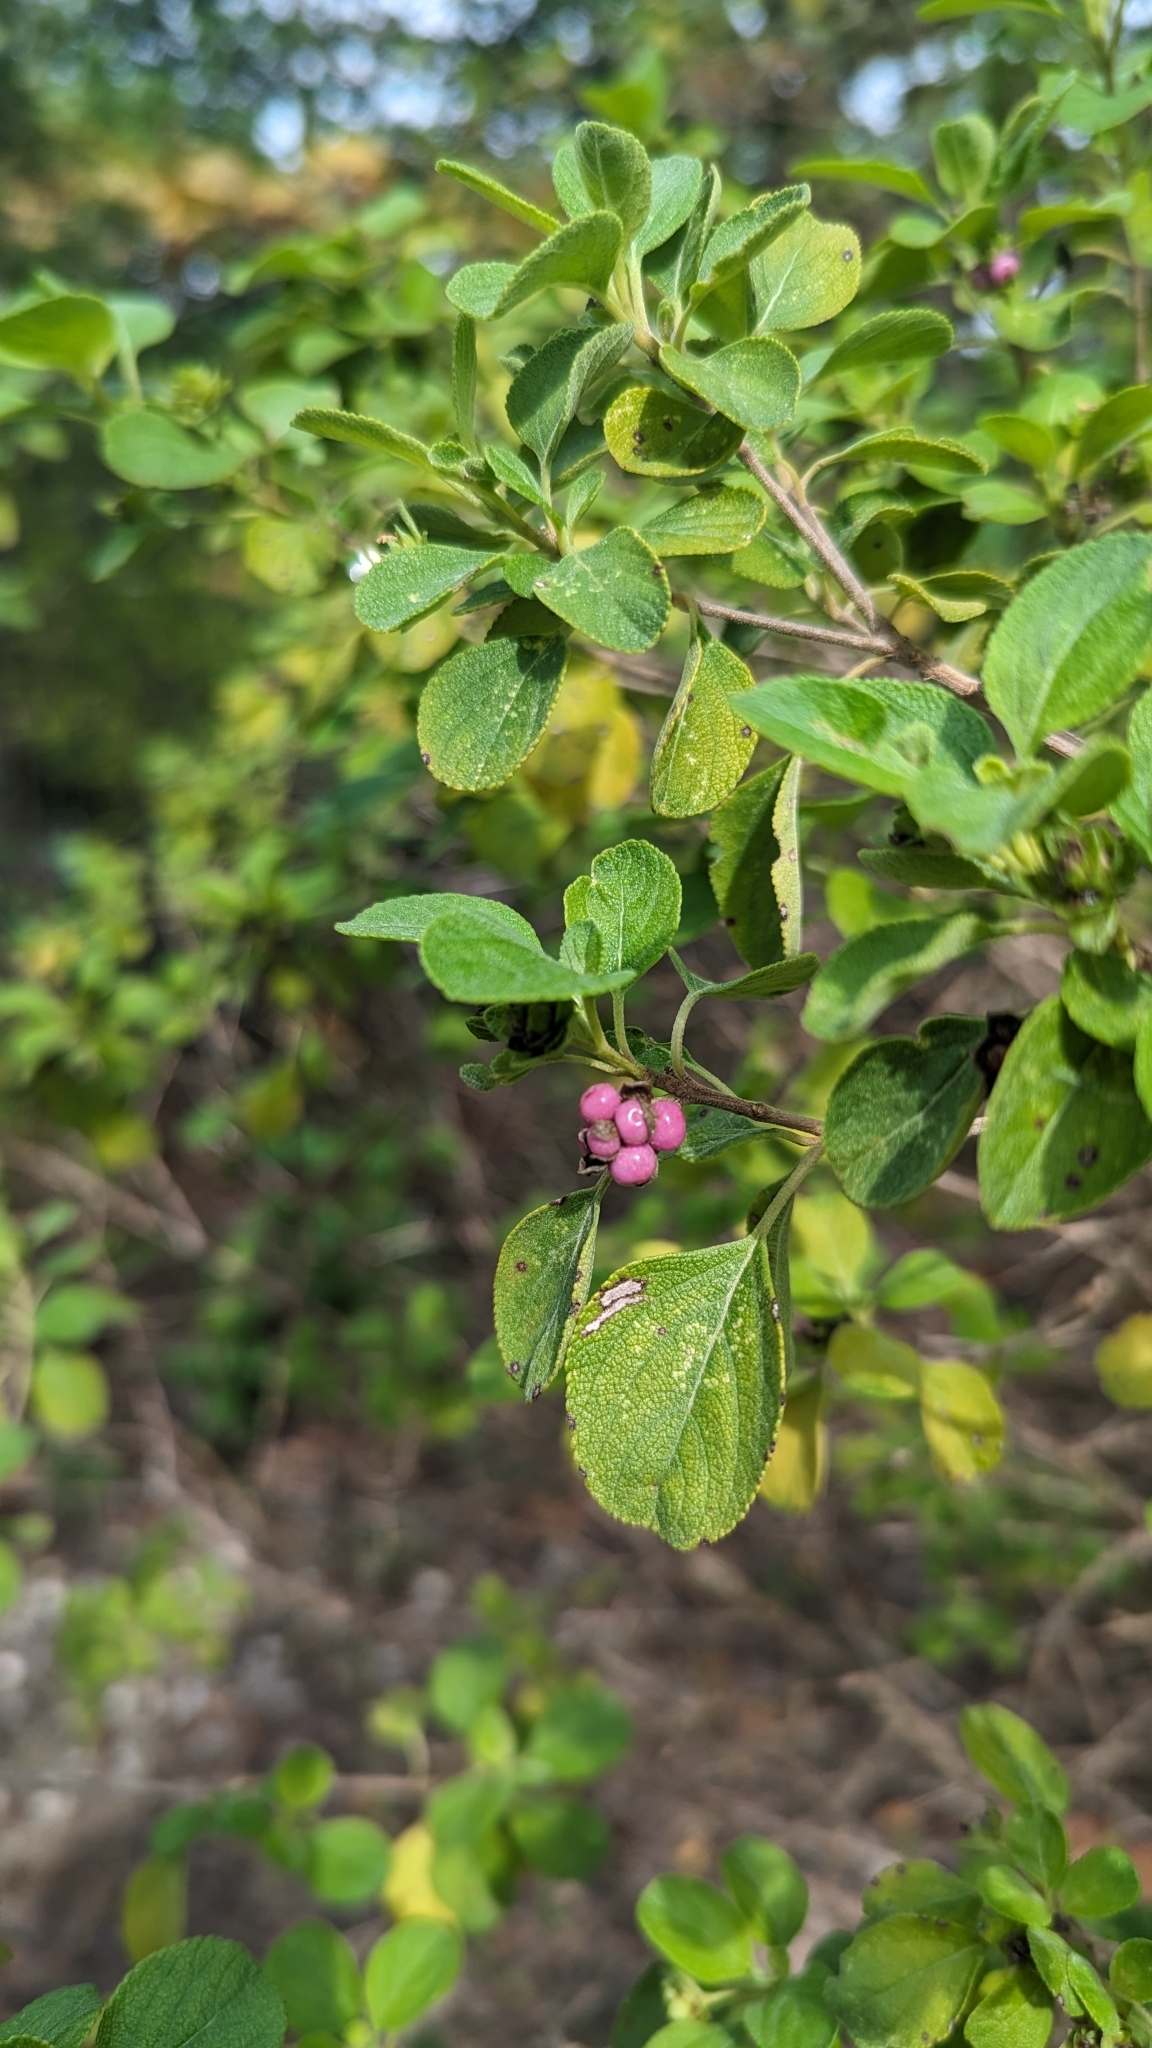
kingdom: Plantae
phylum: Tracheophyta
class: Magnoliopsida
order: Lamiales
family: Verbenaceae
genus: Lantana
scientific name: Lantana involucrata
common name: Black sage
